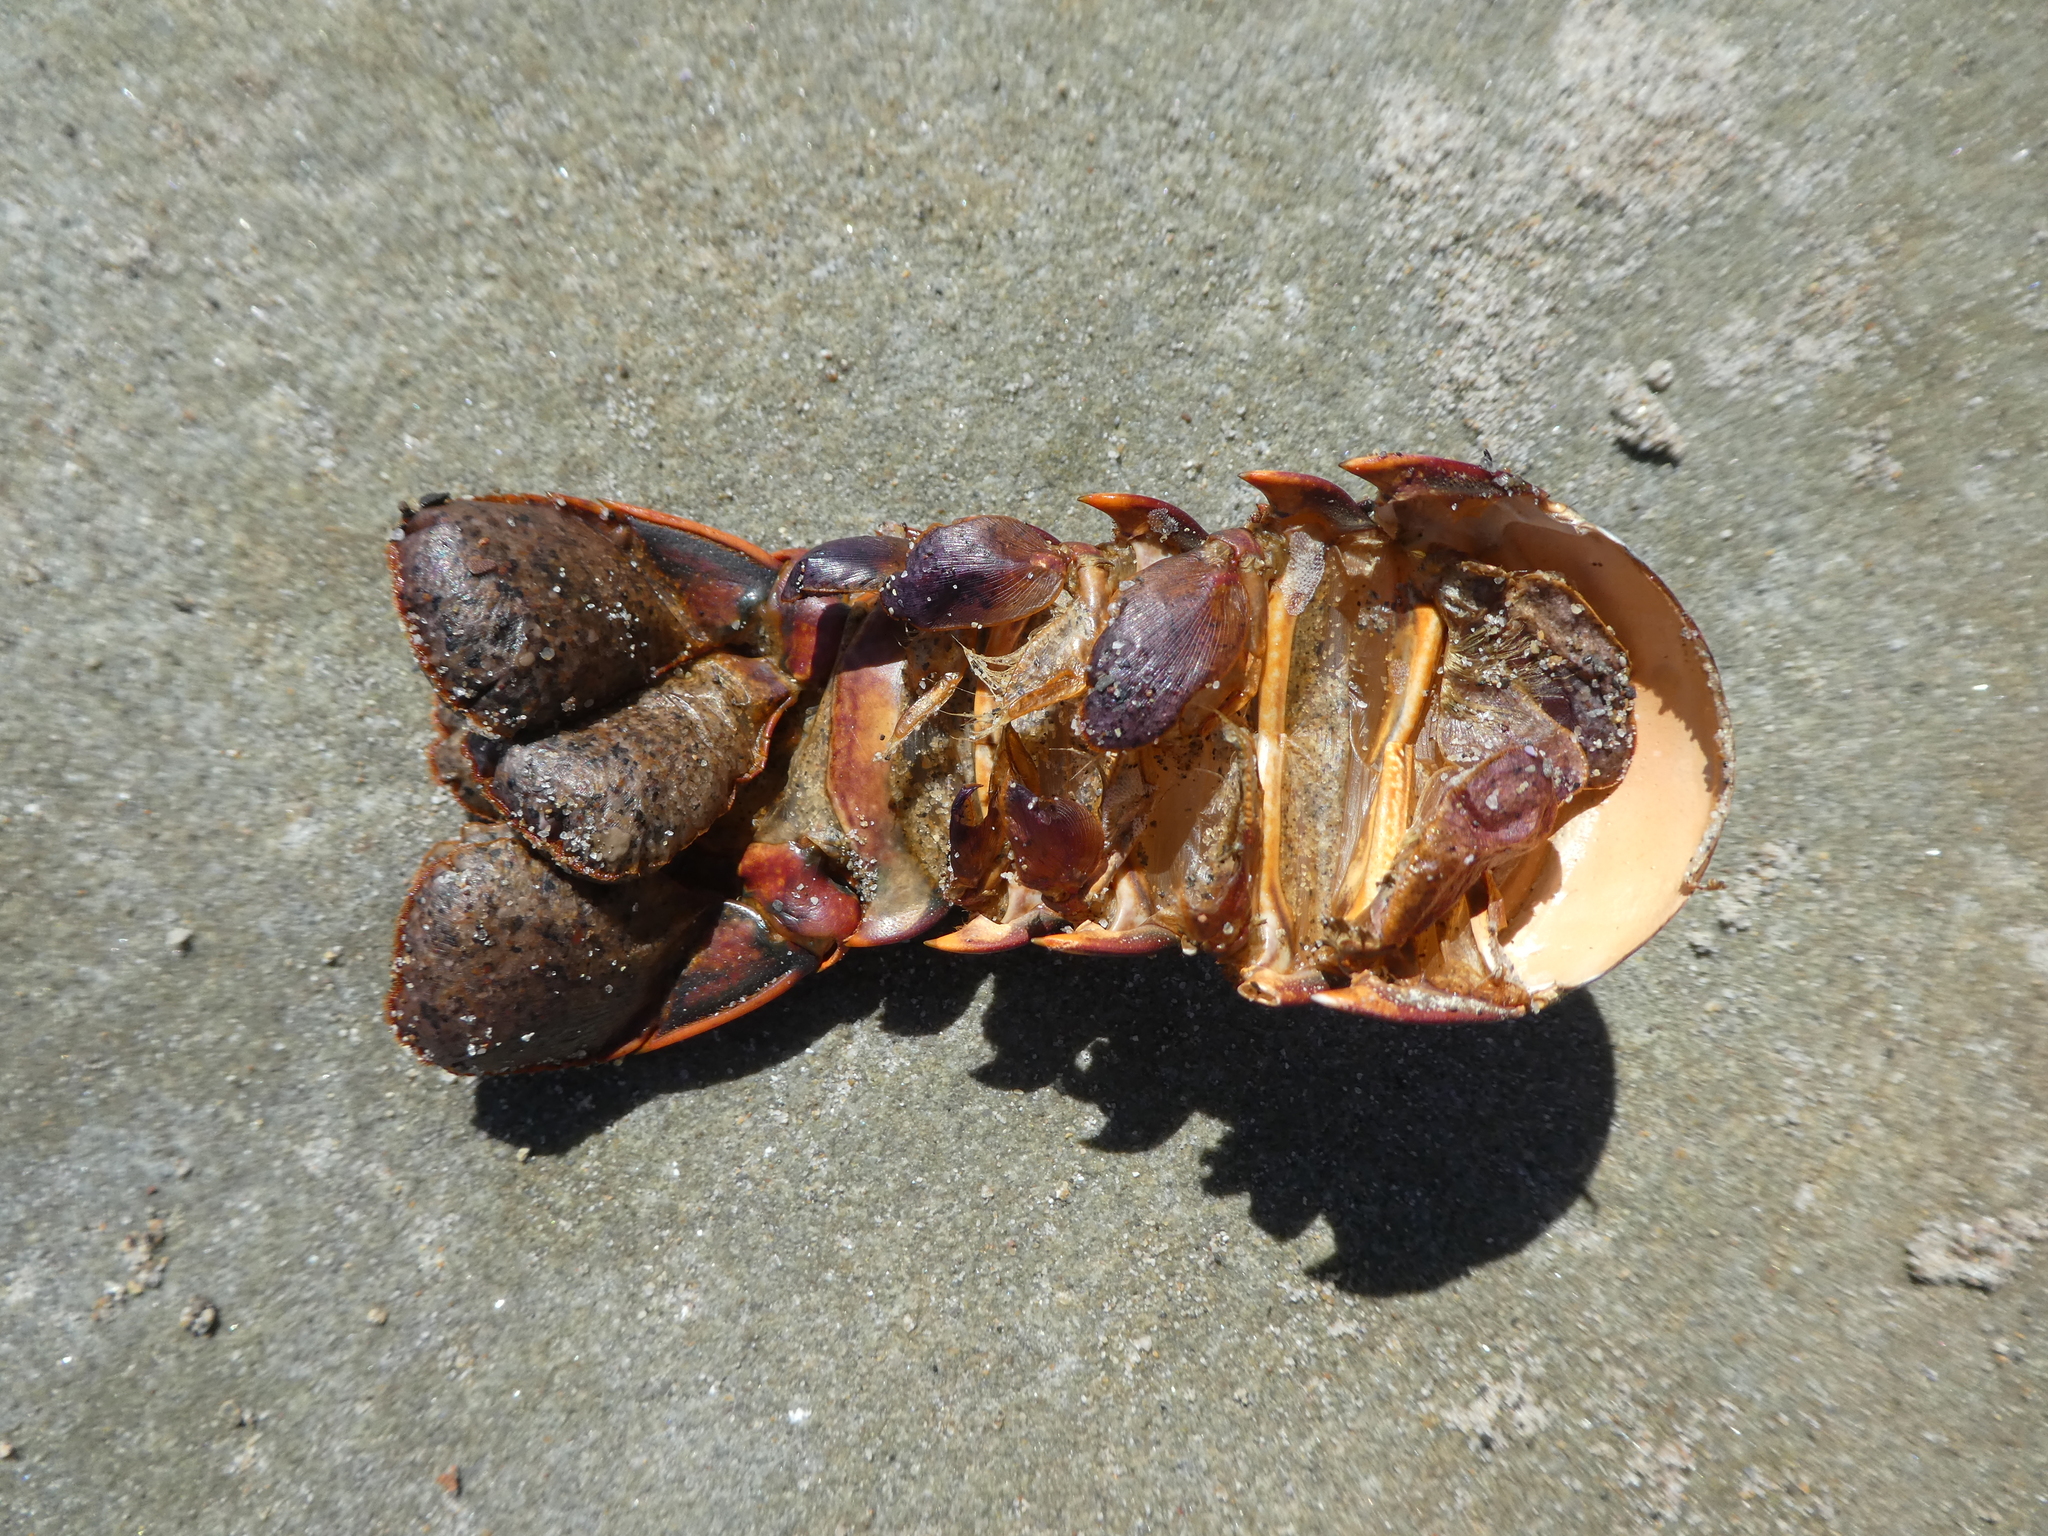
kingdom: Animalia
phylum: Arthropoda
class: Malacostraca
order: Decapoda
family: Palinuridae
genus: Panulirus
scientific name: Panulirus interruptus
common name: California spiny lobster
